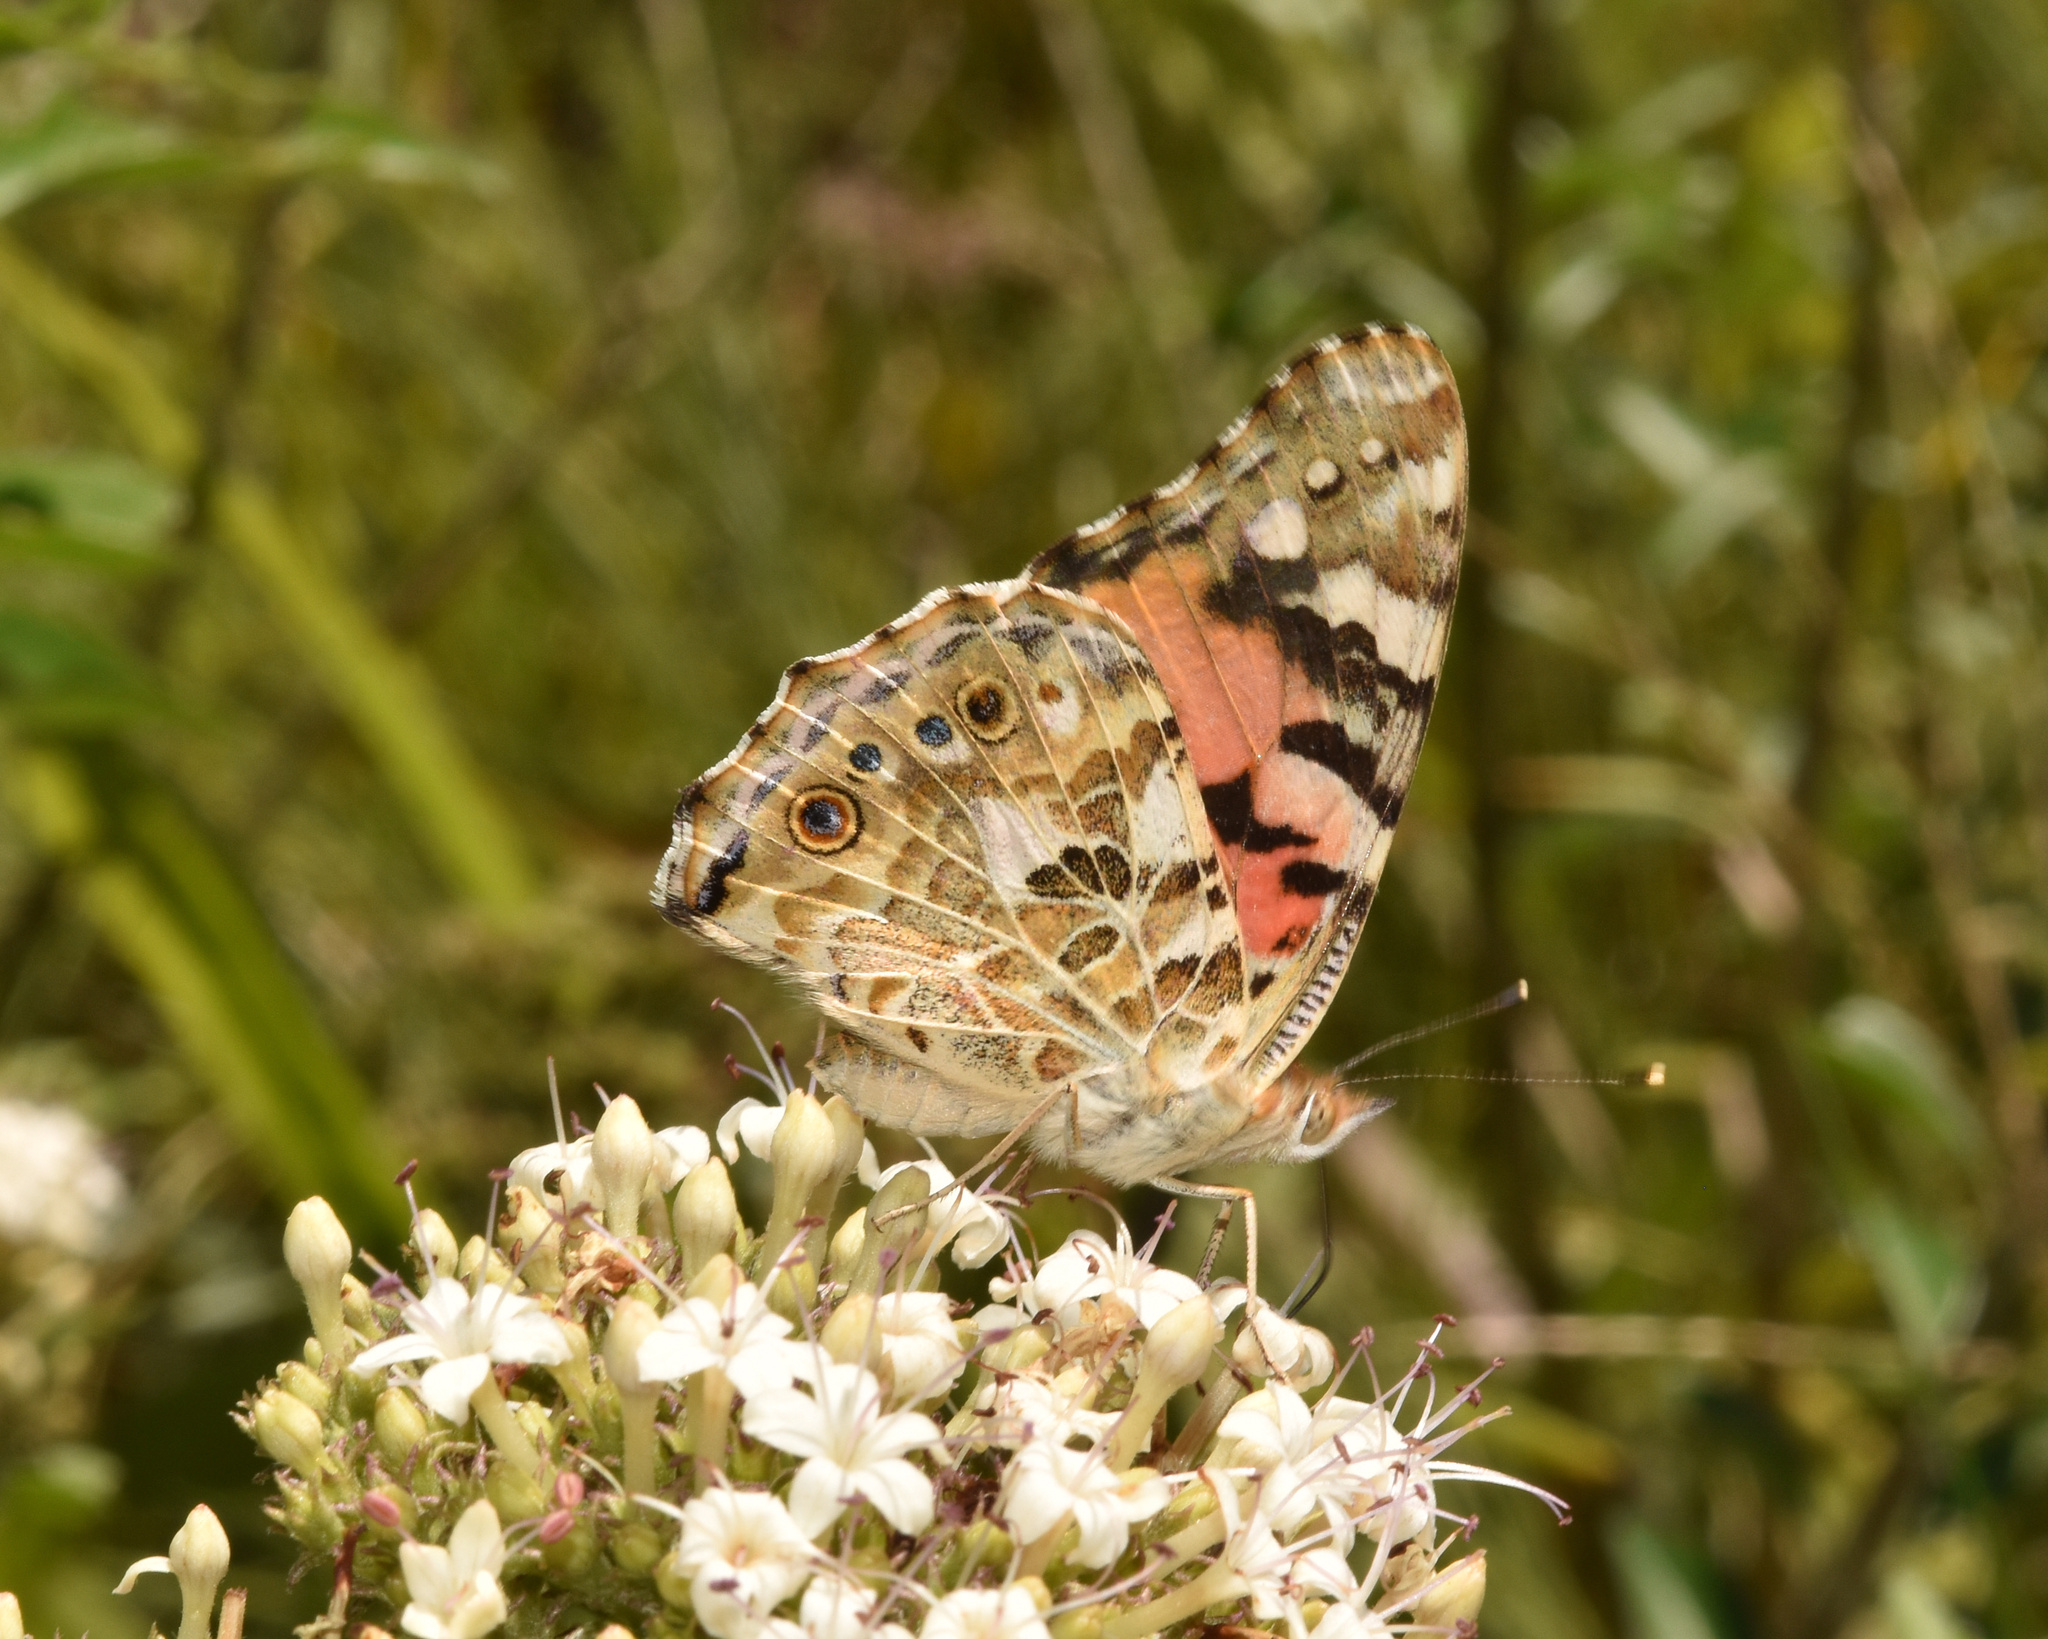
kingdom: Animalia
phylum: Arthropoda
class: Insecta
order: Lepidoptera
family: Nymphalidae
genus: Vanessa
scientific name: Vanessa cardui
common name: Painted lady
